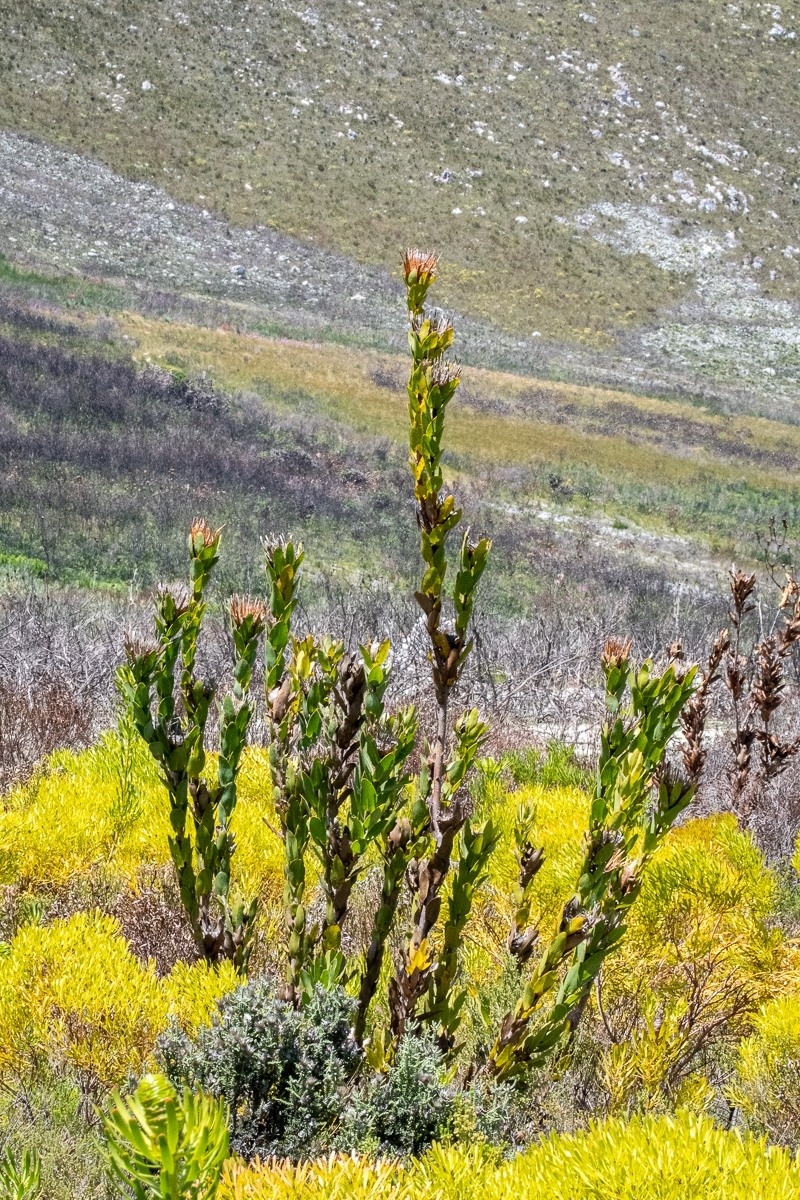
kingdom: Plantae
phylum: Tracheophyta
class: Magnoliopsida
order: Proteales
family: Proteaceae
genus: Protea
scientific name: Protea compacta
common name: Bot river protea
